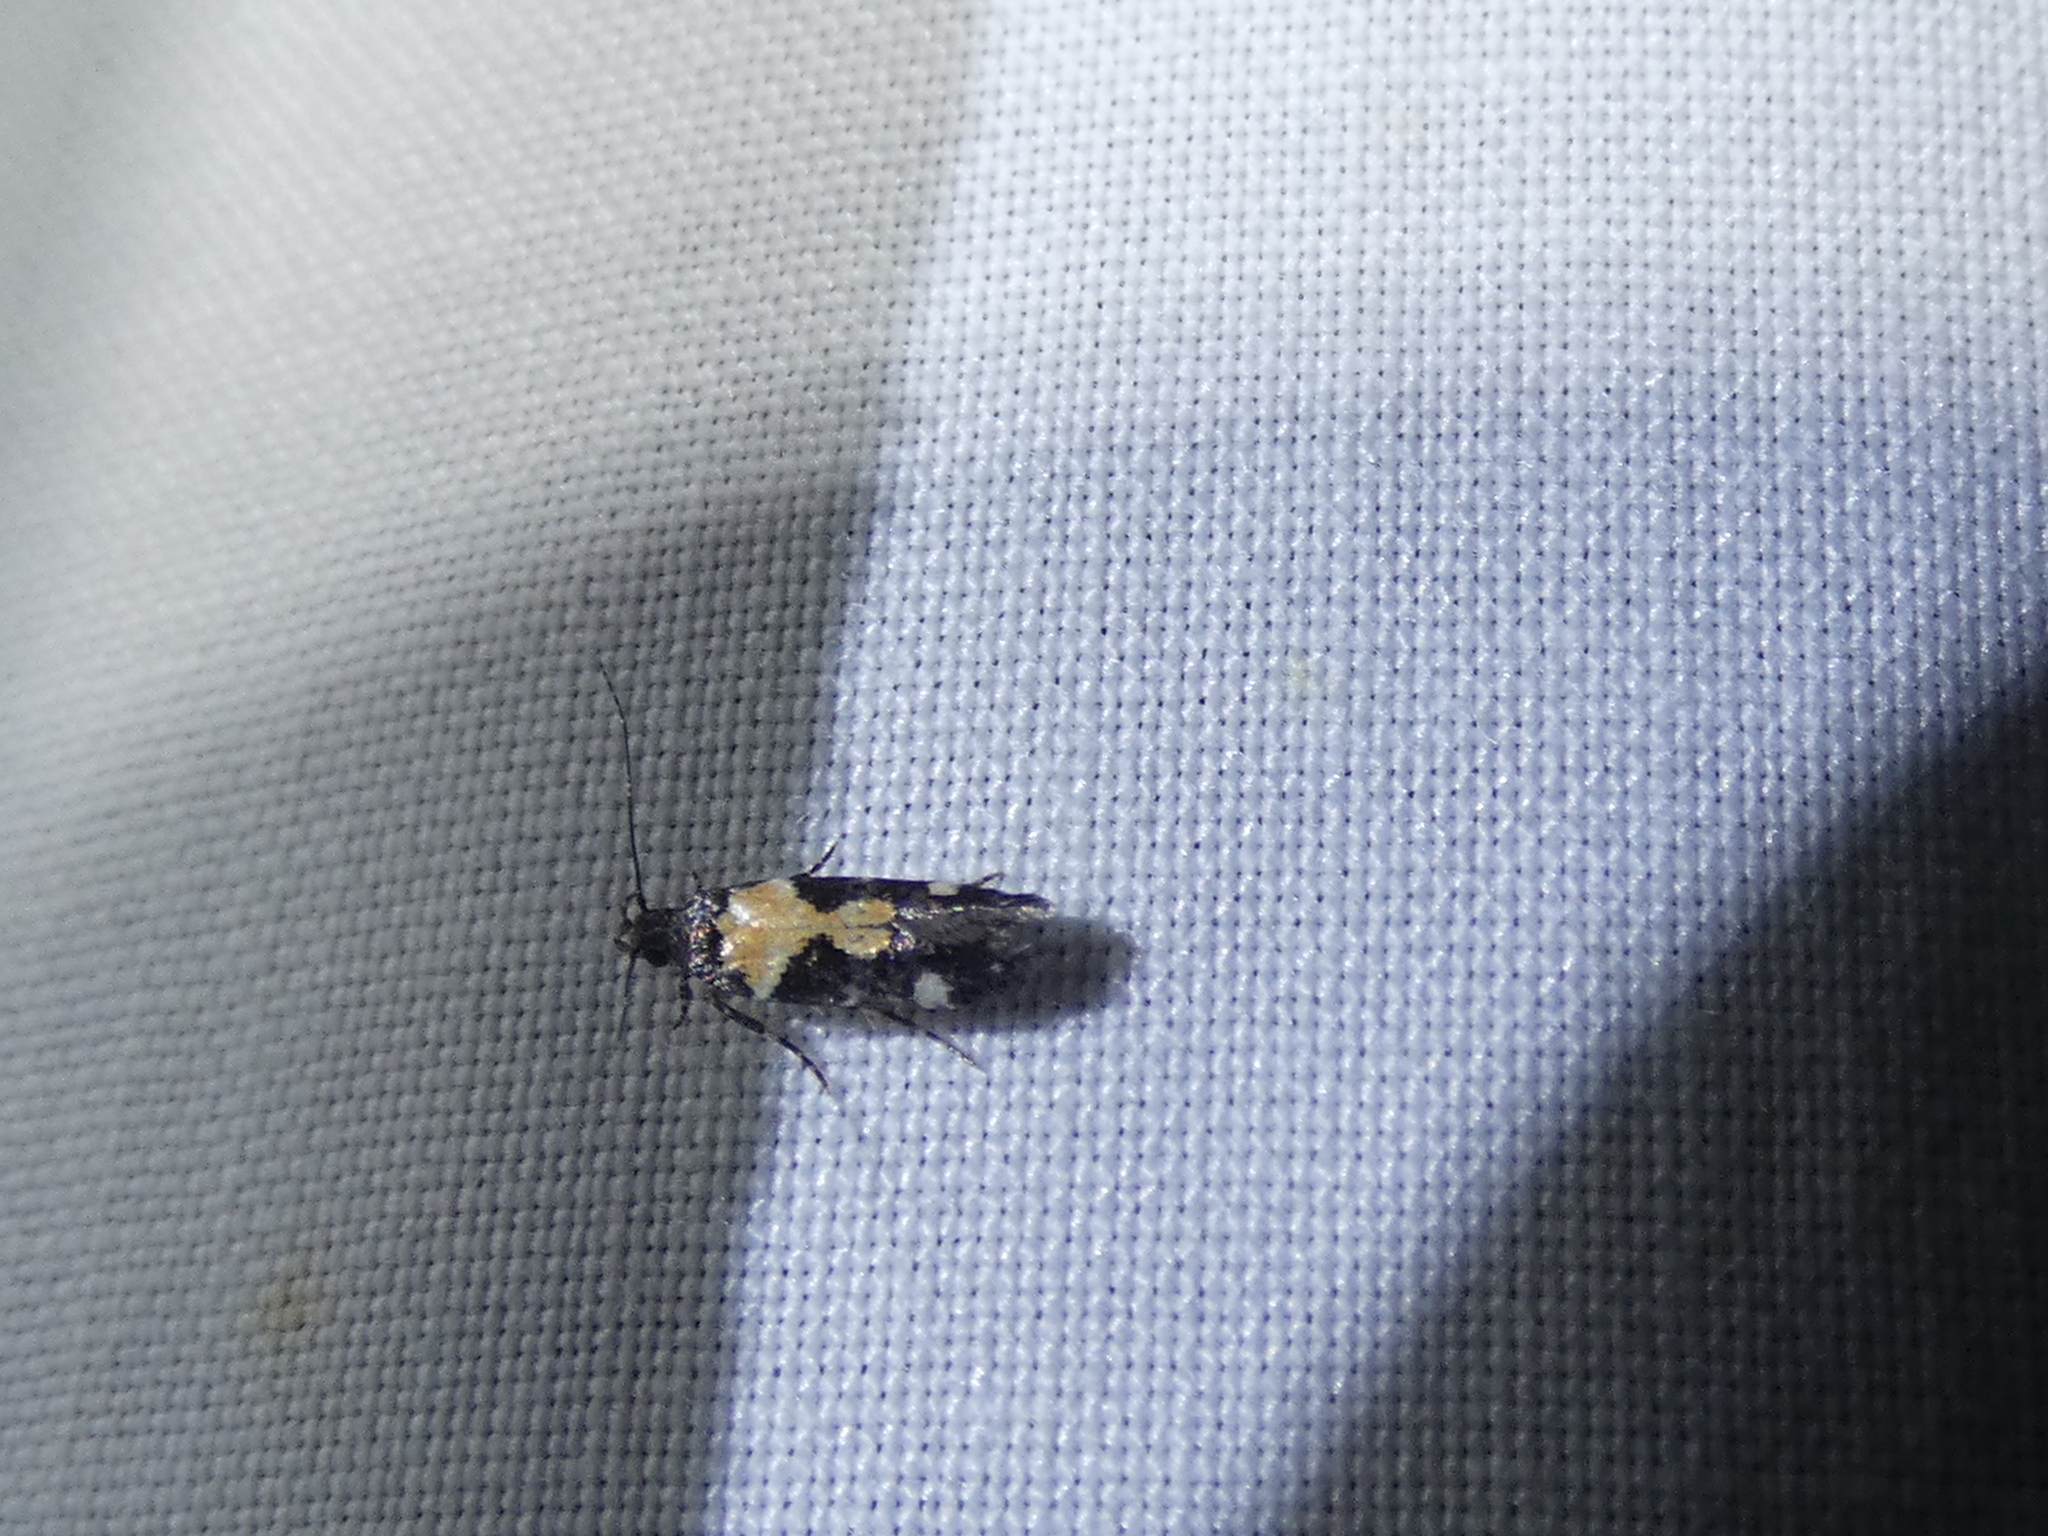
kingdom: Animalia
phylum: Arthropoda
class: Insecta
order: Lepidoptera
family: Gelechiidae
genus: Stegasta
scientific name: Stegasta bosqueella
